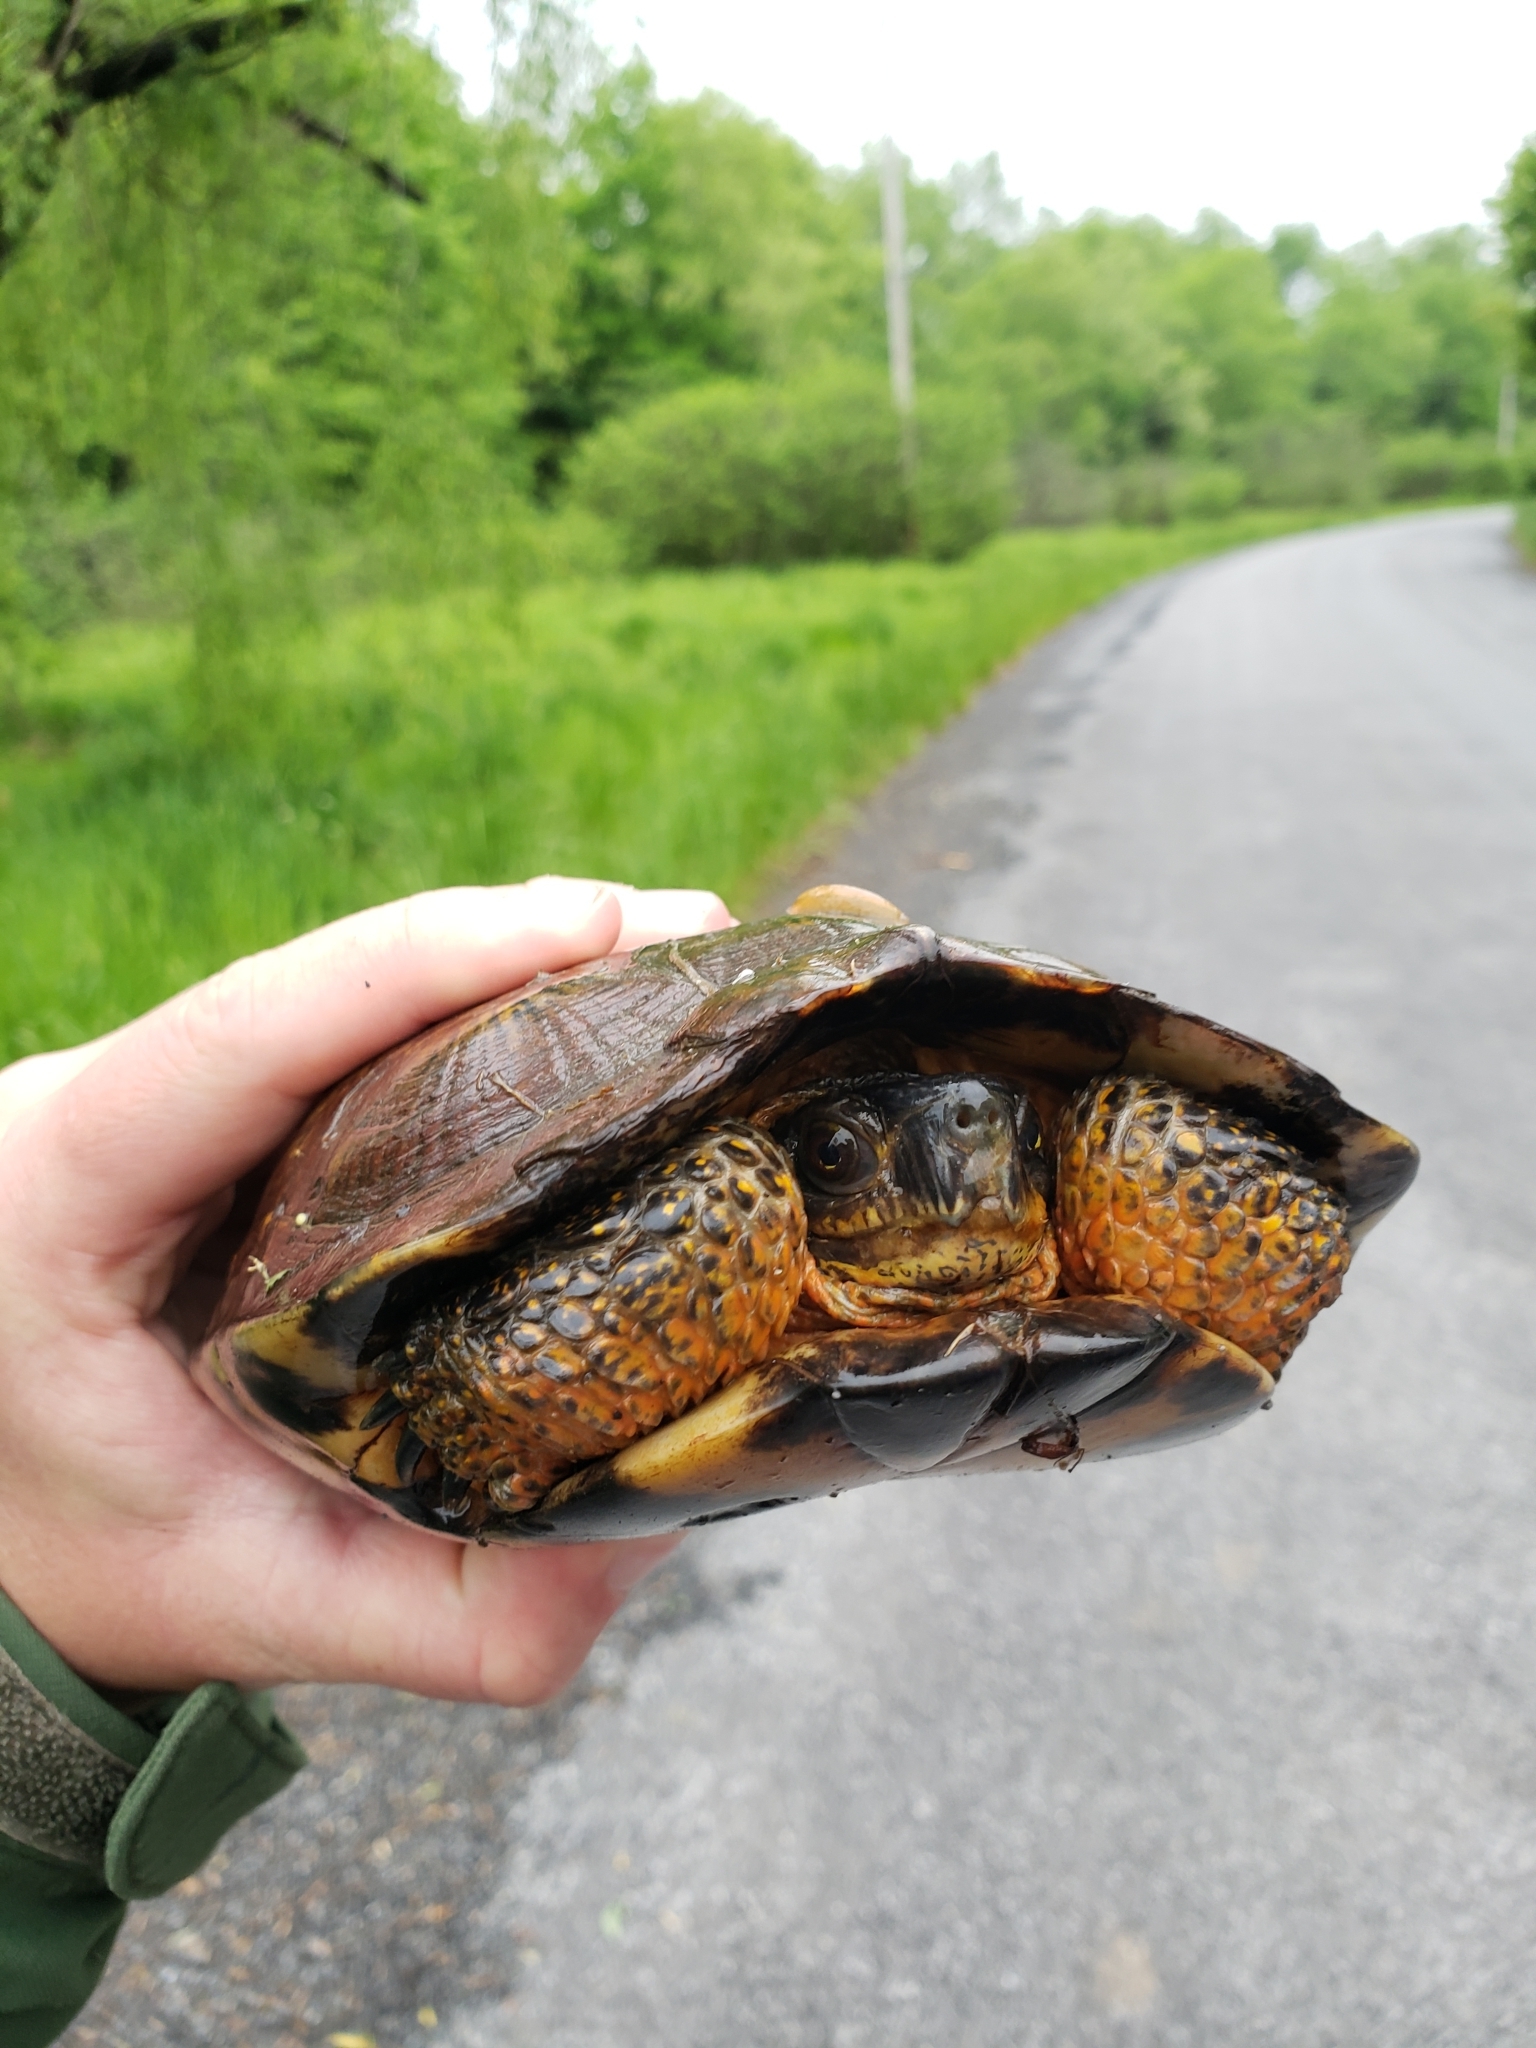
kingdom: Animalia
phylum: Chordata
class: Testudines
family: Emydidae
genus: Glyptemys
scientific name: Glyptemys insculpta
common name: Wood turtle
